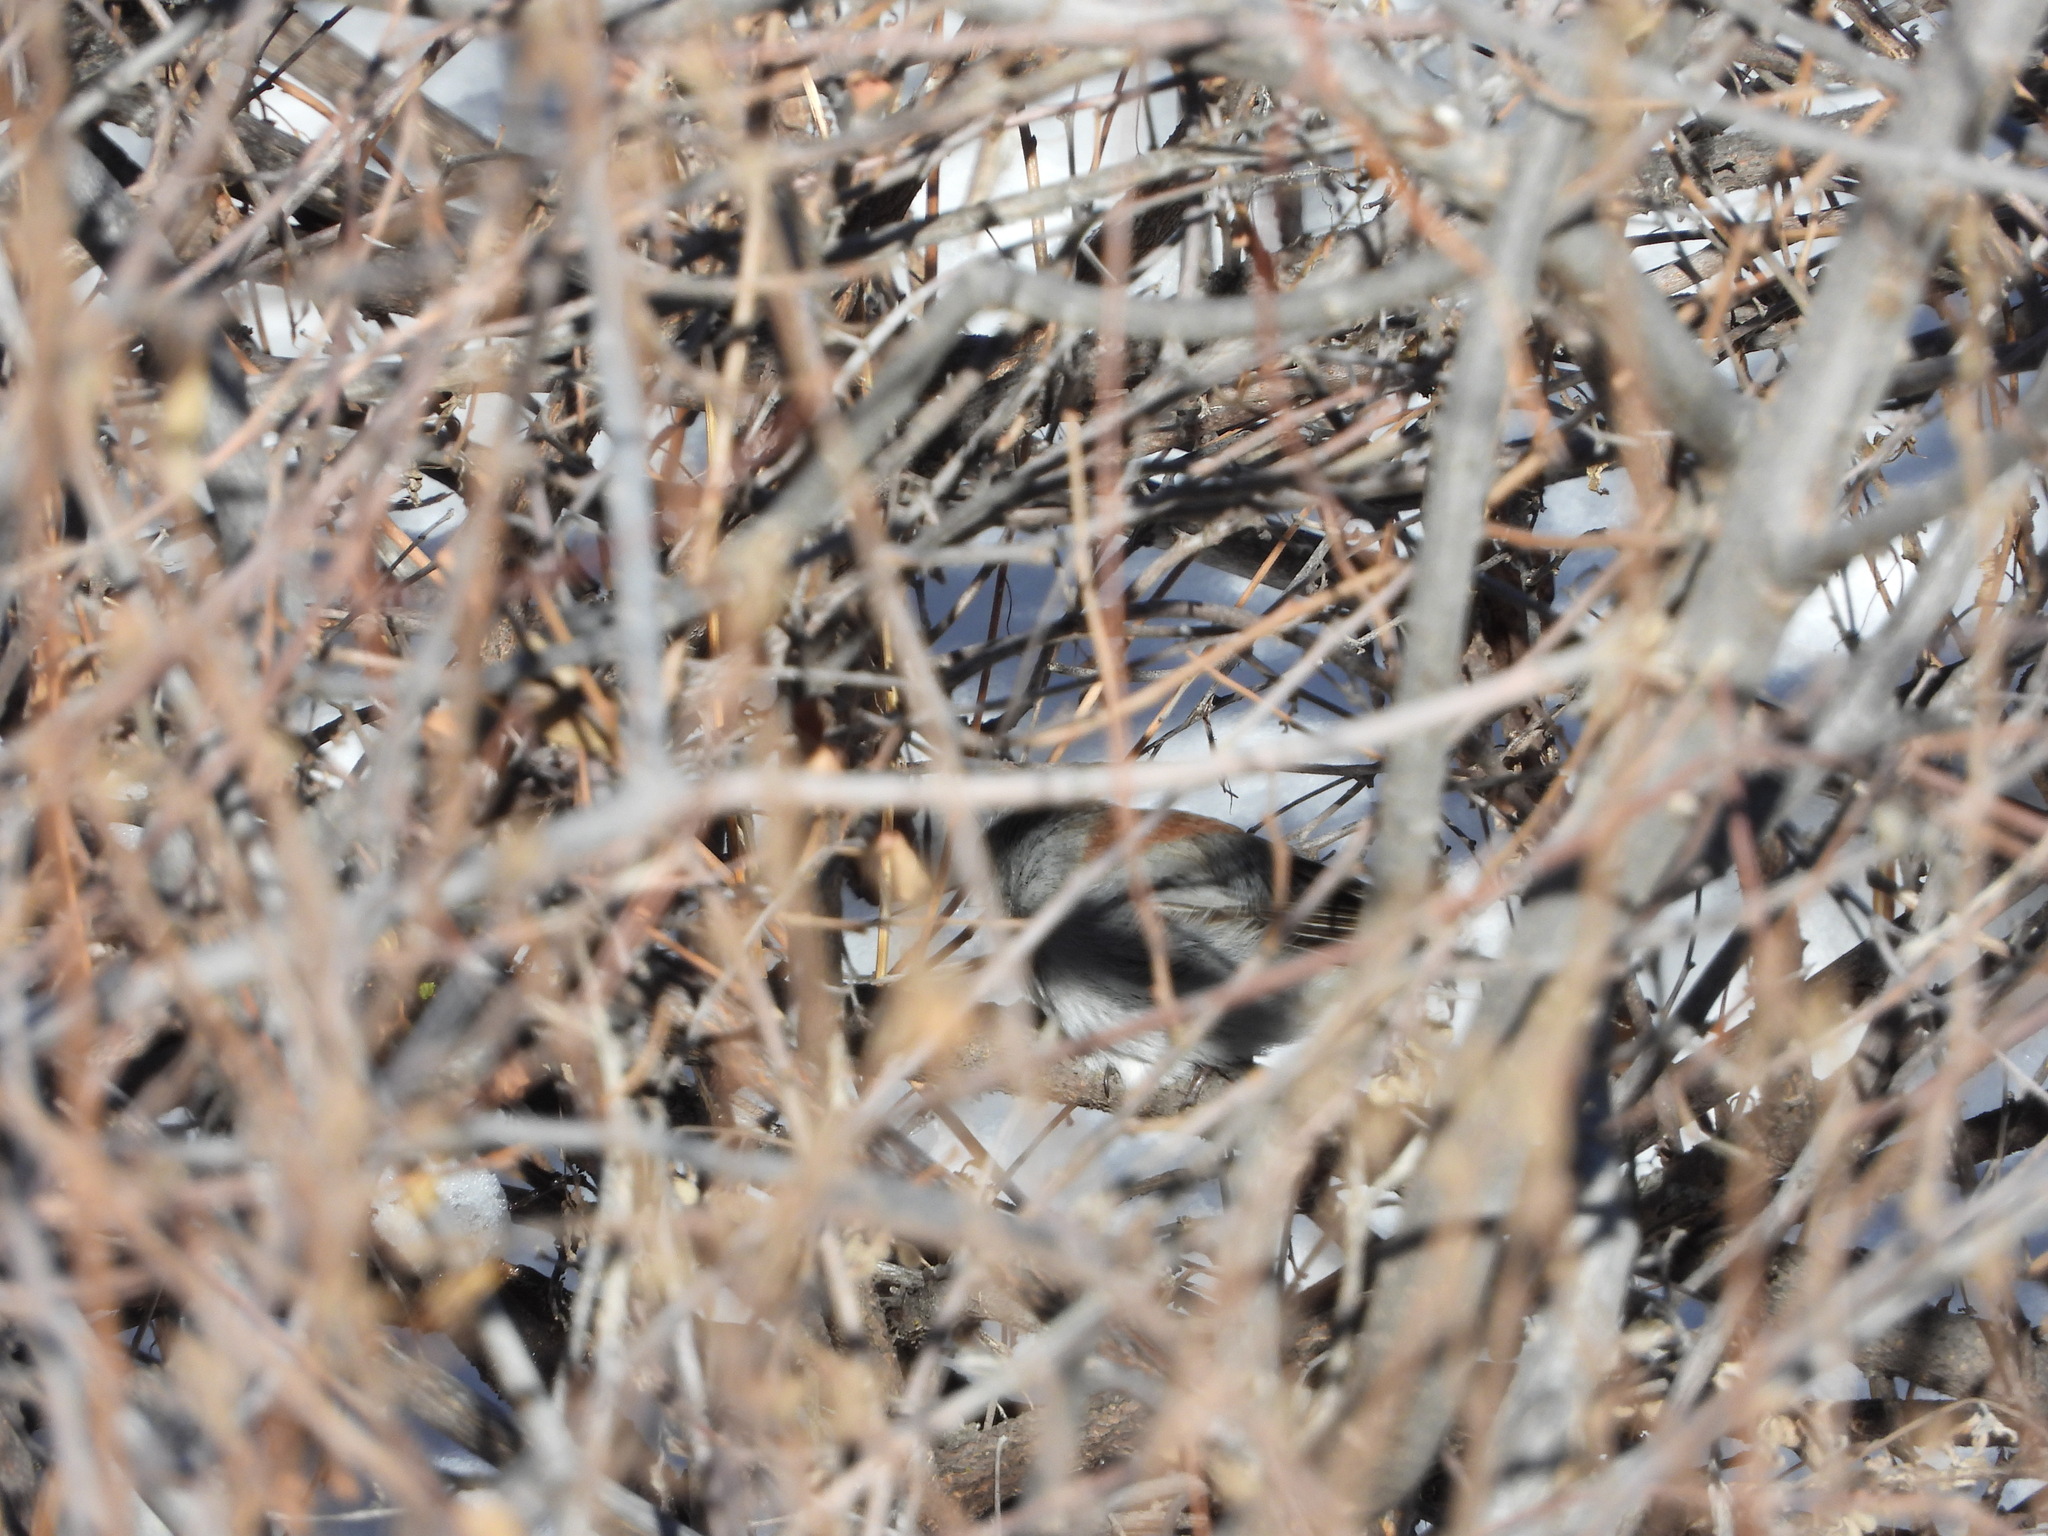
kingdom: Animalia
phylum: Chordata
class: Aves
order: Passeriformes
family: Passerellidae
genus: Junco
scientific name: Junco hyemalis
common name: Dark-eyed junco
